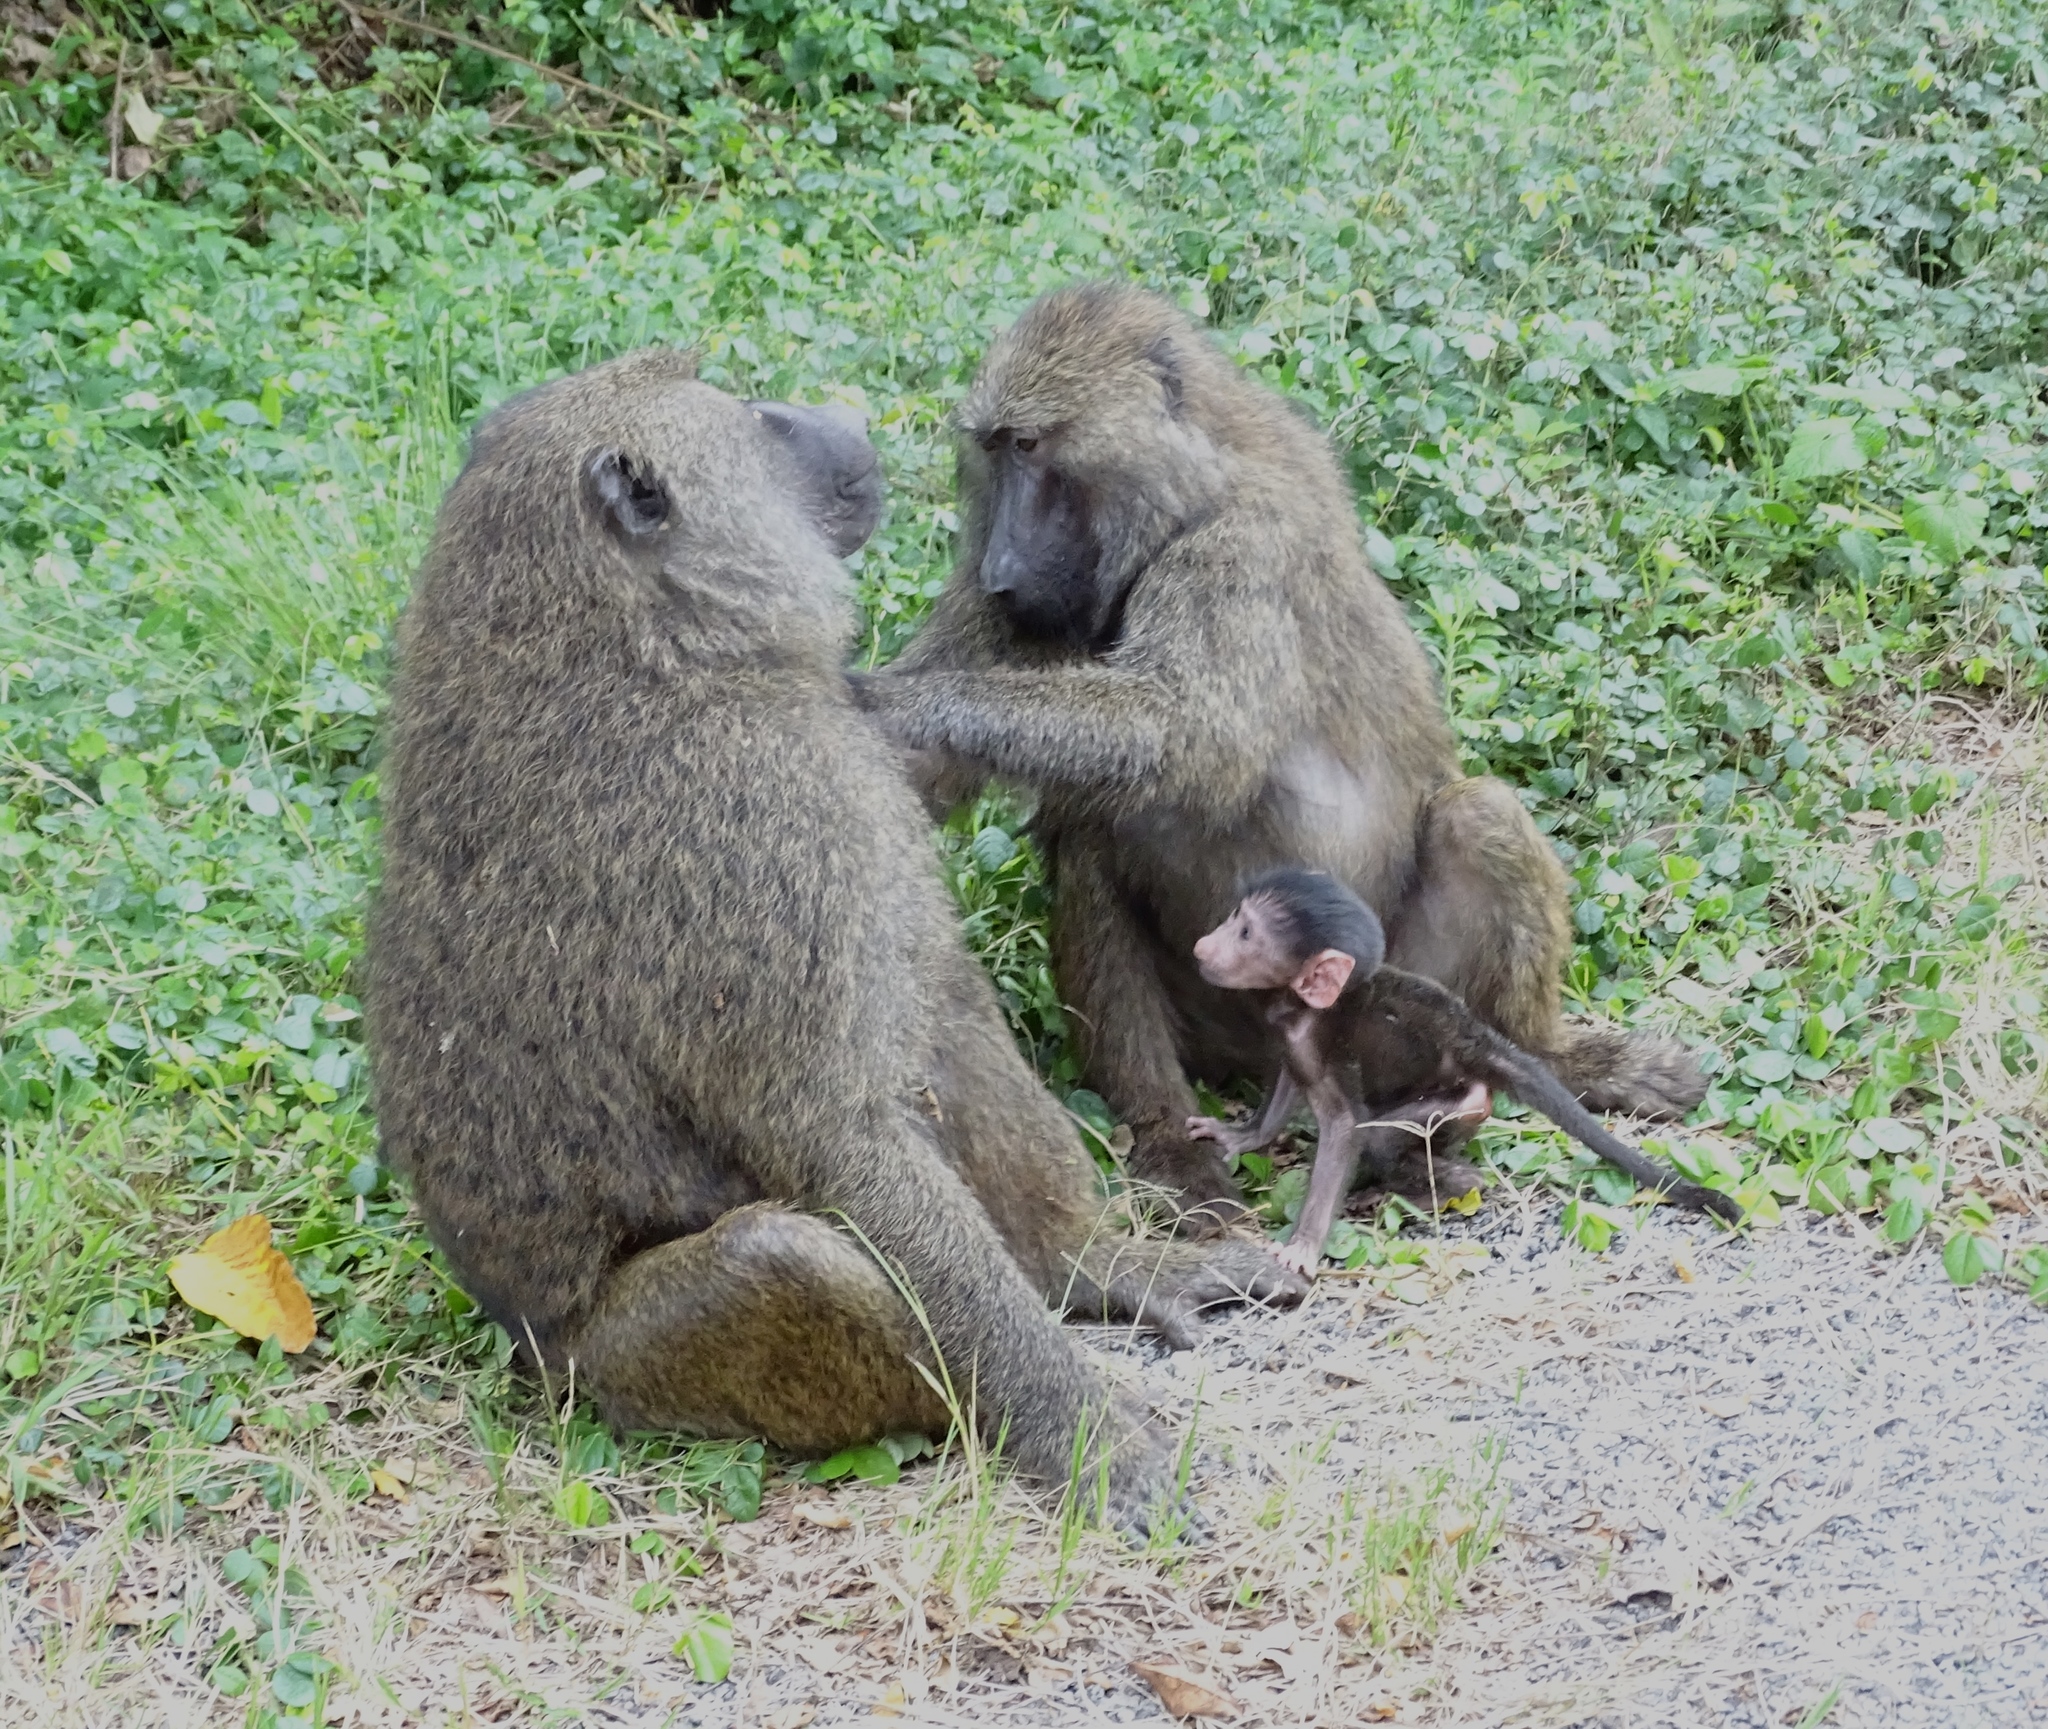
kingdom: Animalia
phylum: Chordata
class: Mammalia
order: Primates
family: Cercopithecidae
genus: Papio
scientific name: Papio anubis
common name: Olive baboon
